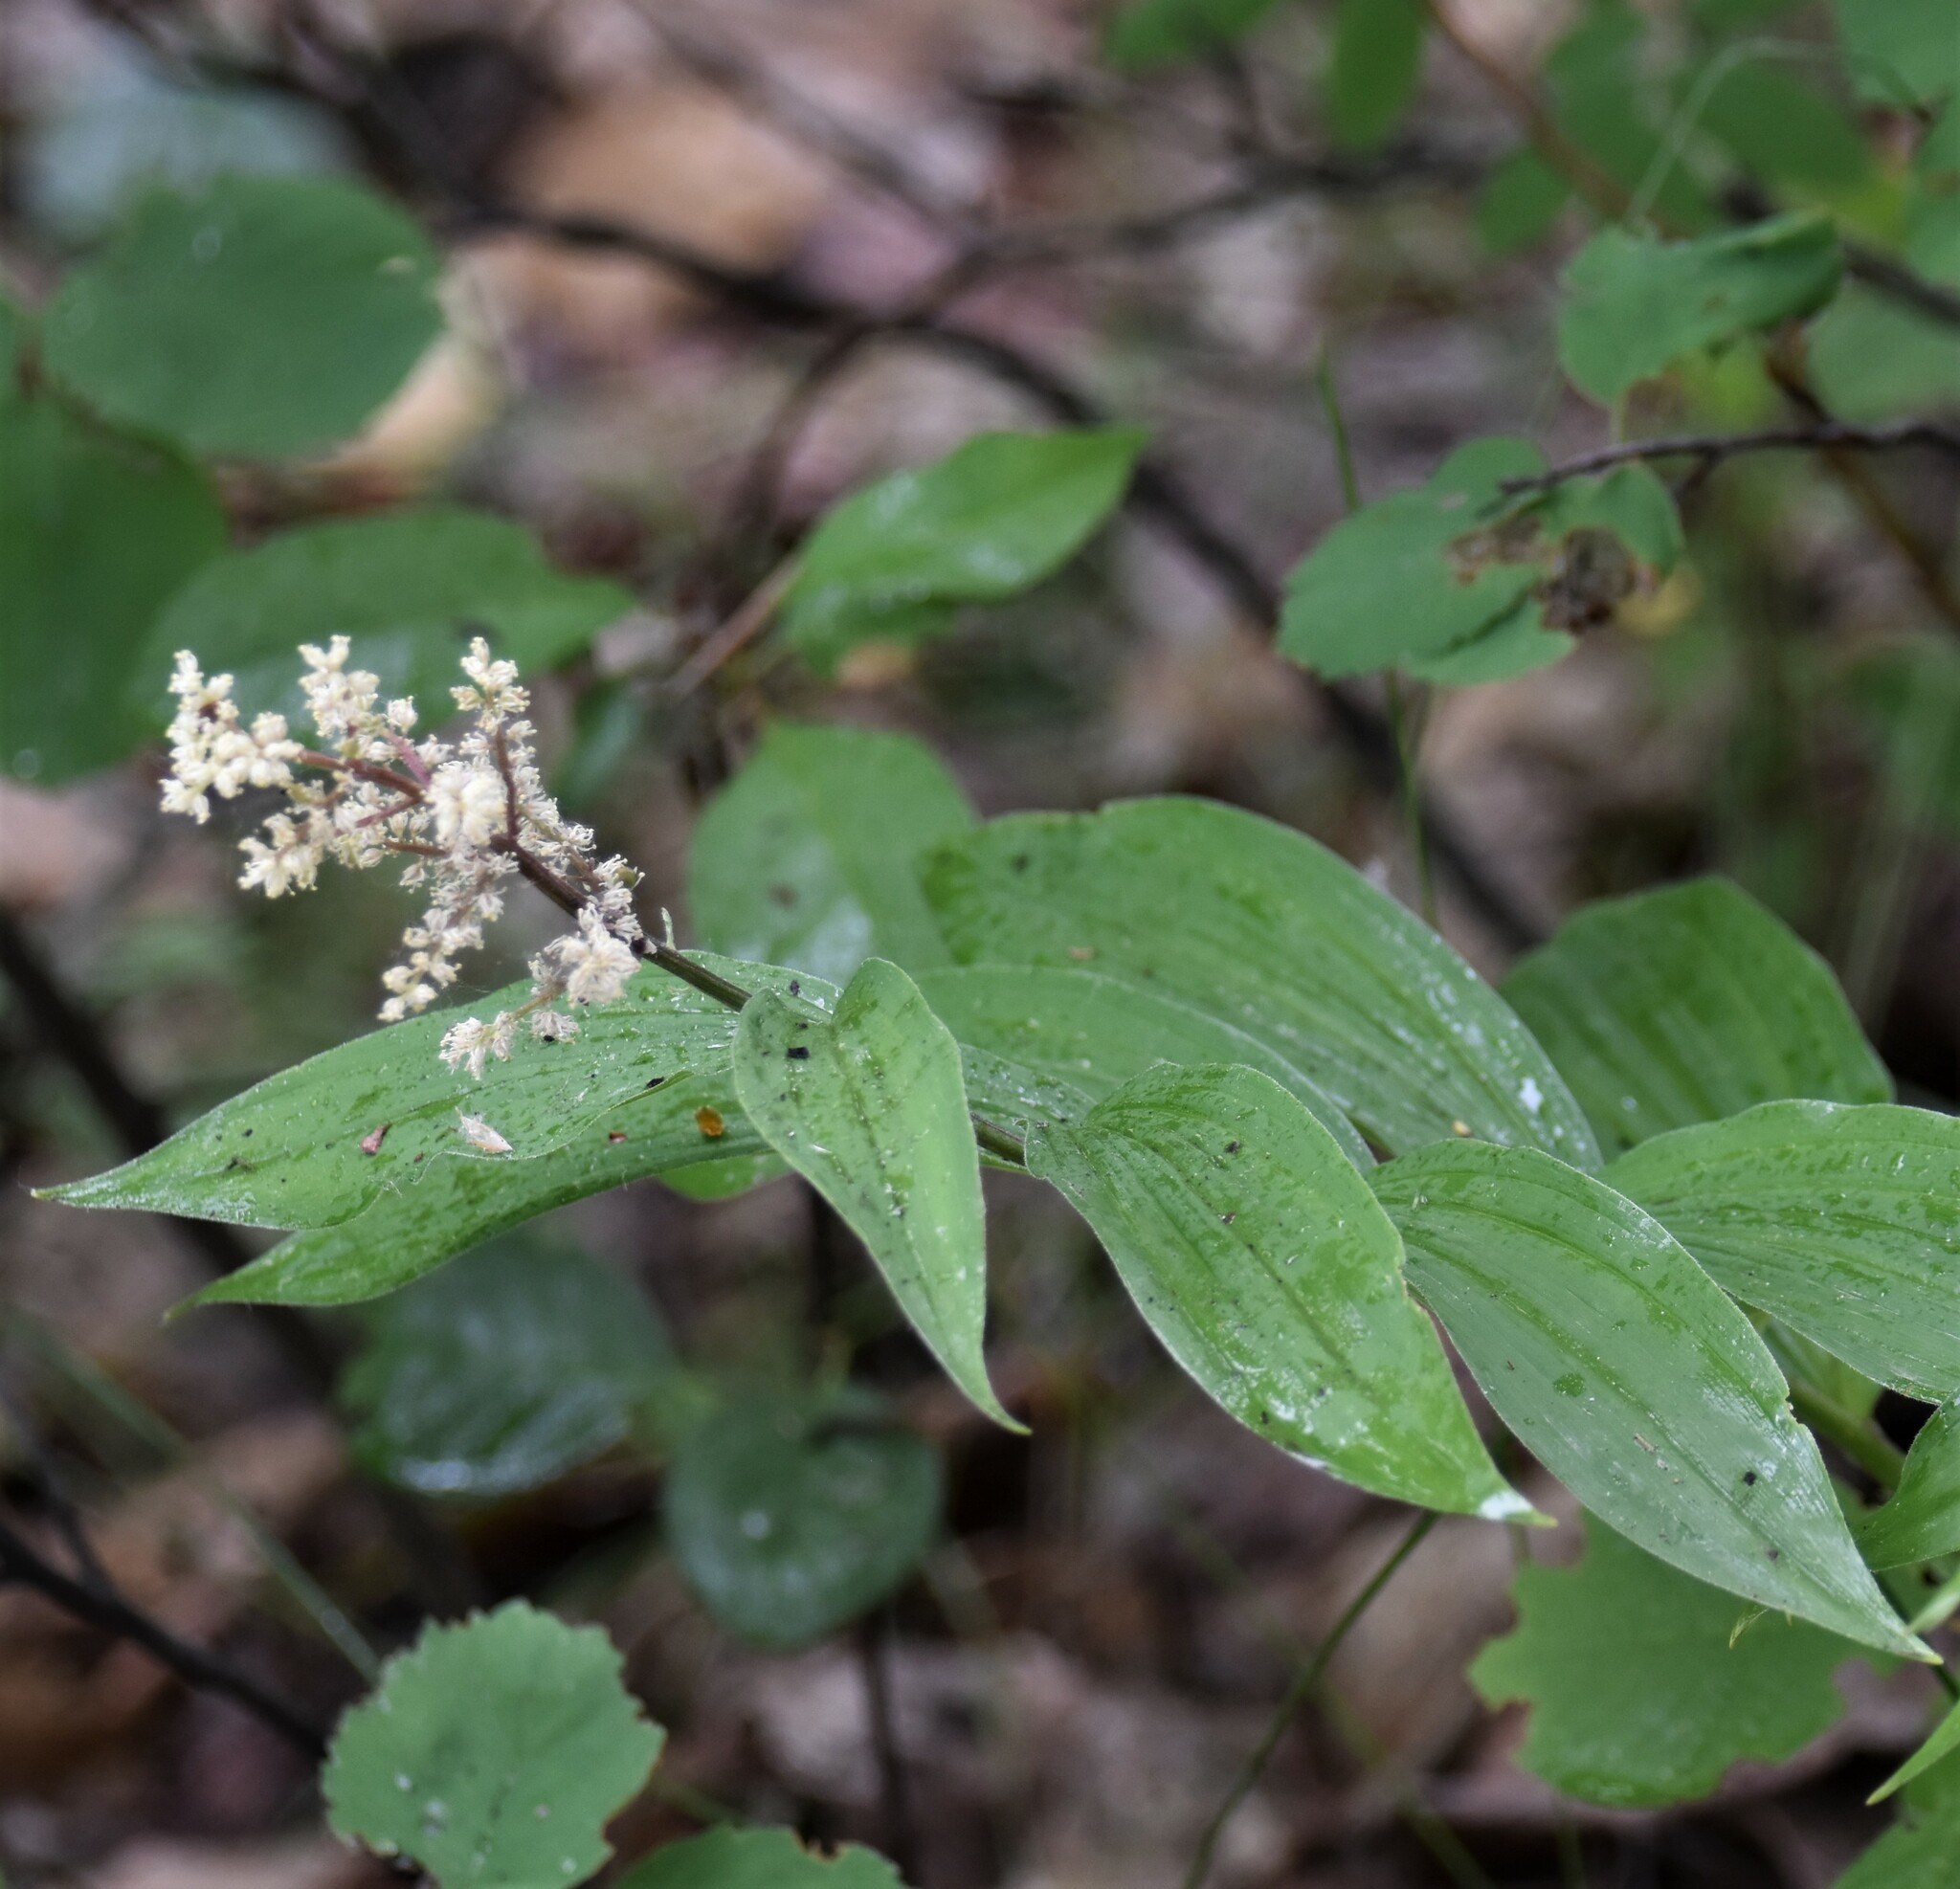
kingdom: Plantae
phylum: Tracheophyta
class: Liliopsida
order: Asparagales
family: Asparagaceae
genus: Maianthemum
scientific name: Maianthemum racemosum
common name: False spikenard
